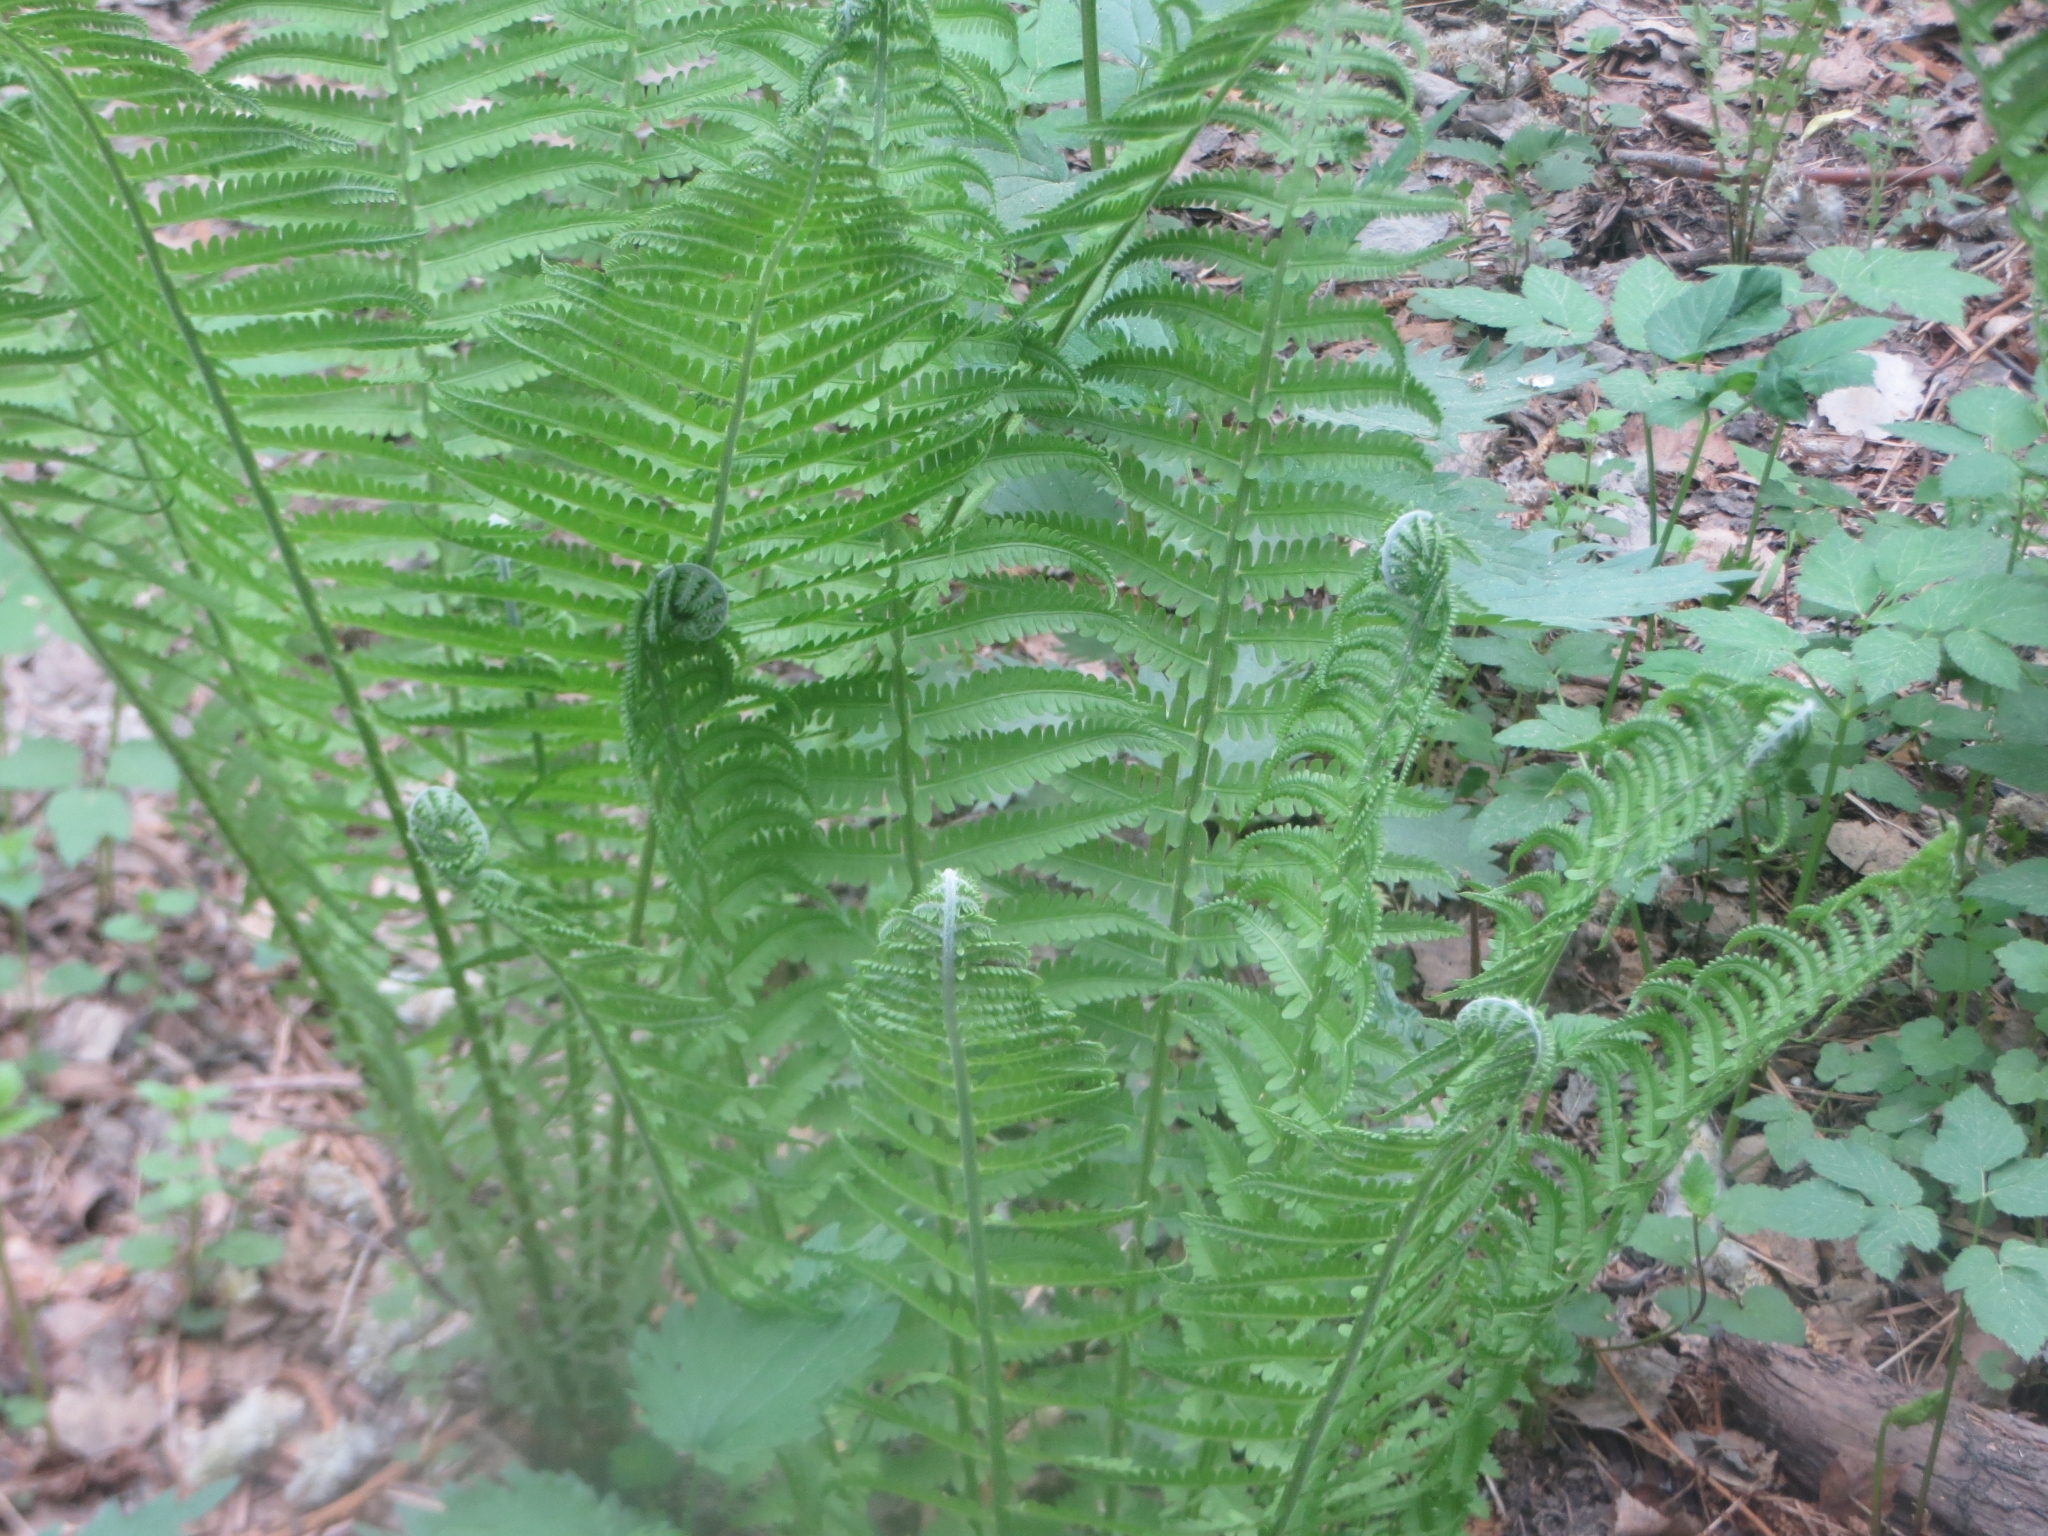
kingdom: Plantae
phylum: Tracheophyta
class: Polypodiopsida
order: Polypodiales
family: Onocleaceae
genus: Matteuccia
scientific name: Matteuccia struthiopteris
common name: Ostrich fern
